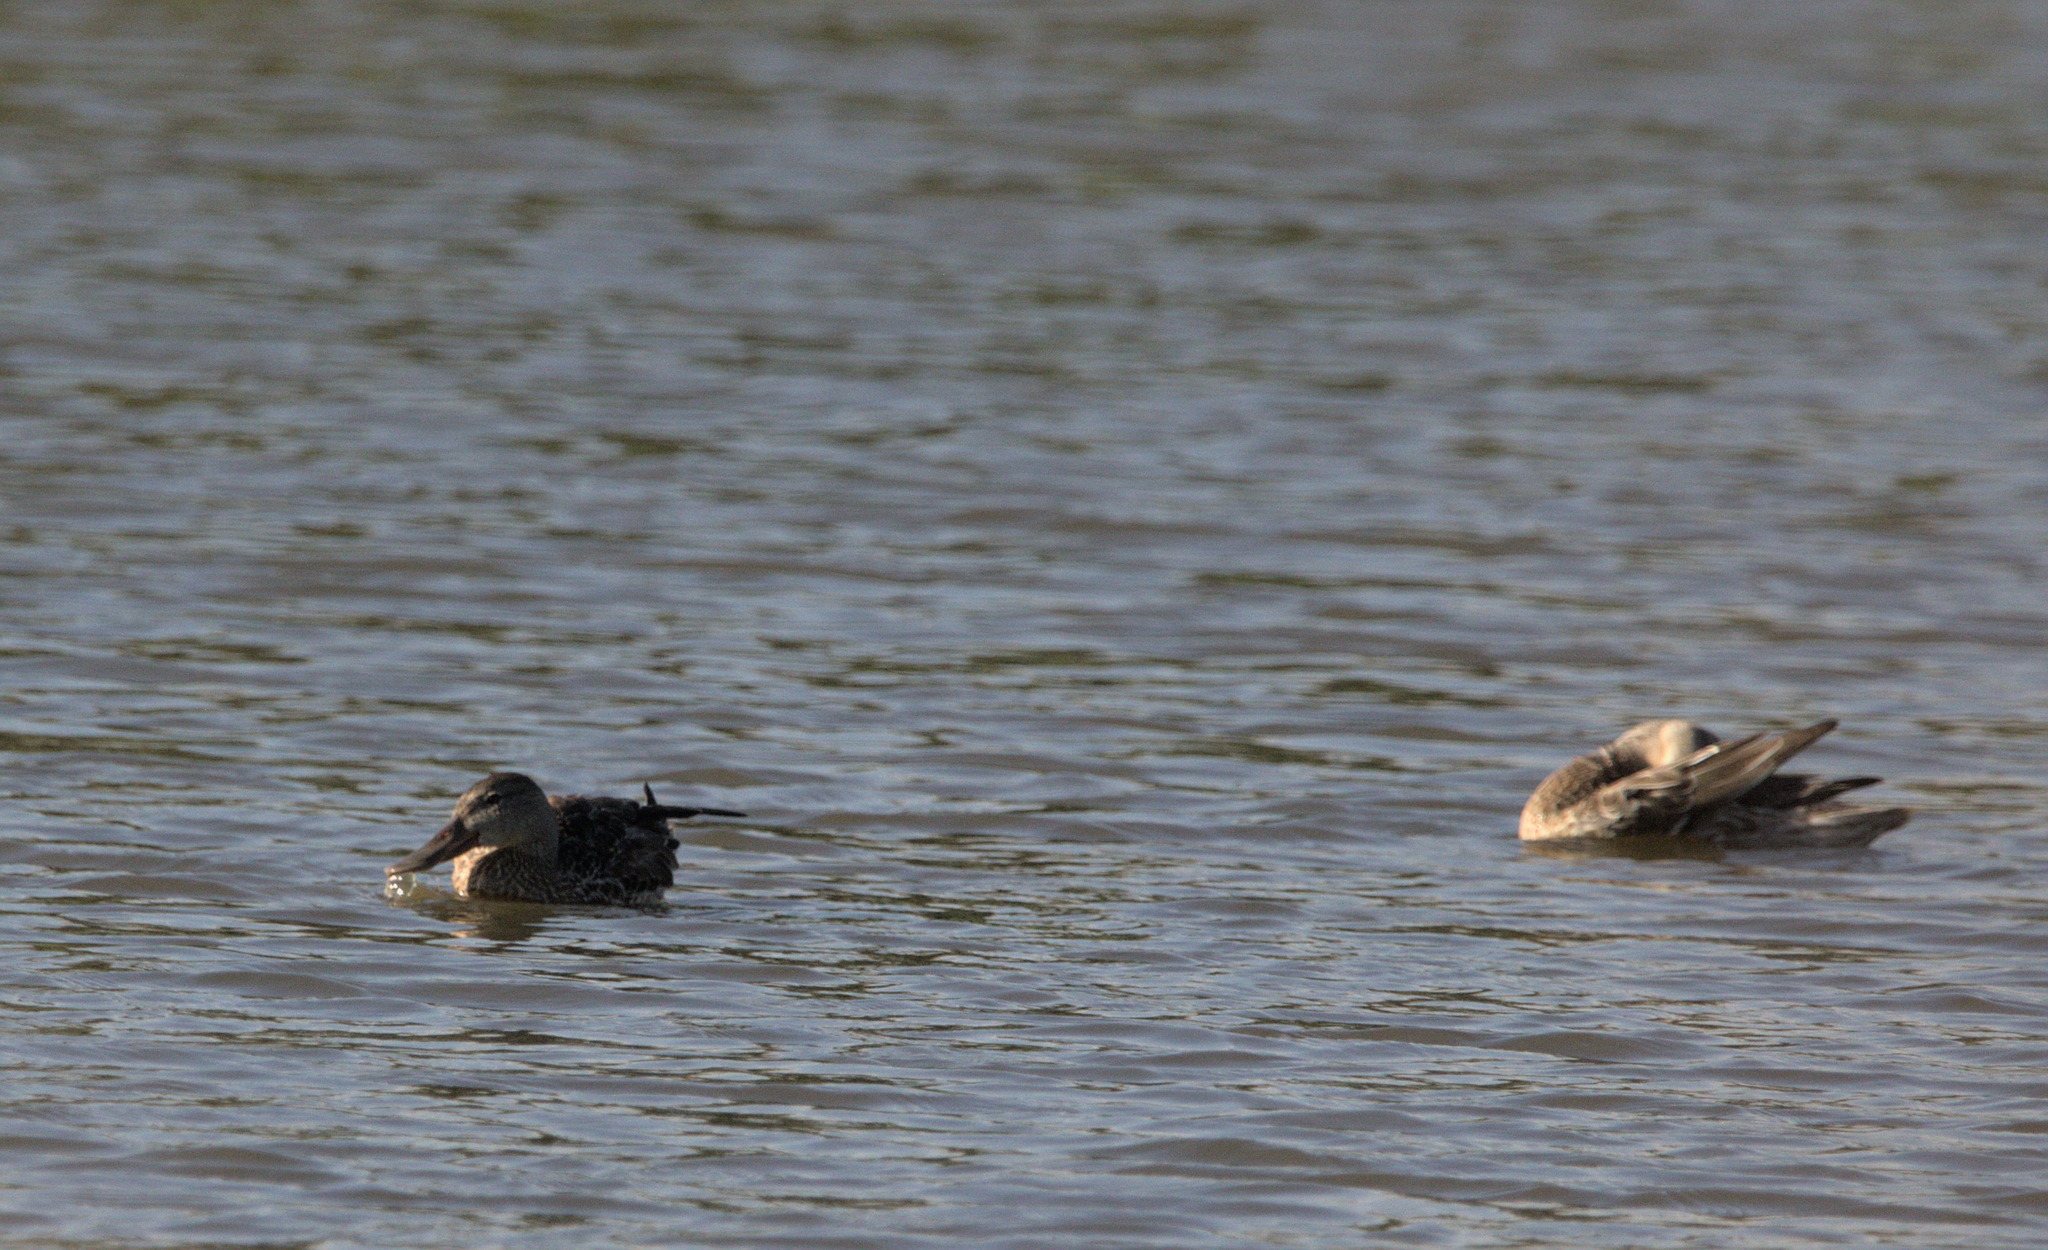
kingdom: Animalia
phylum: Chordata
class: Aves
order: Anseriformes
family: Anatidae
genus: Spatula
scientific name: Spatula clypeata
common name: Northern shoveler
